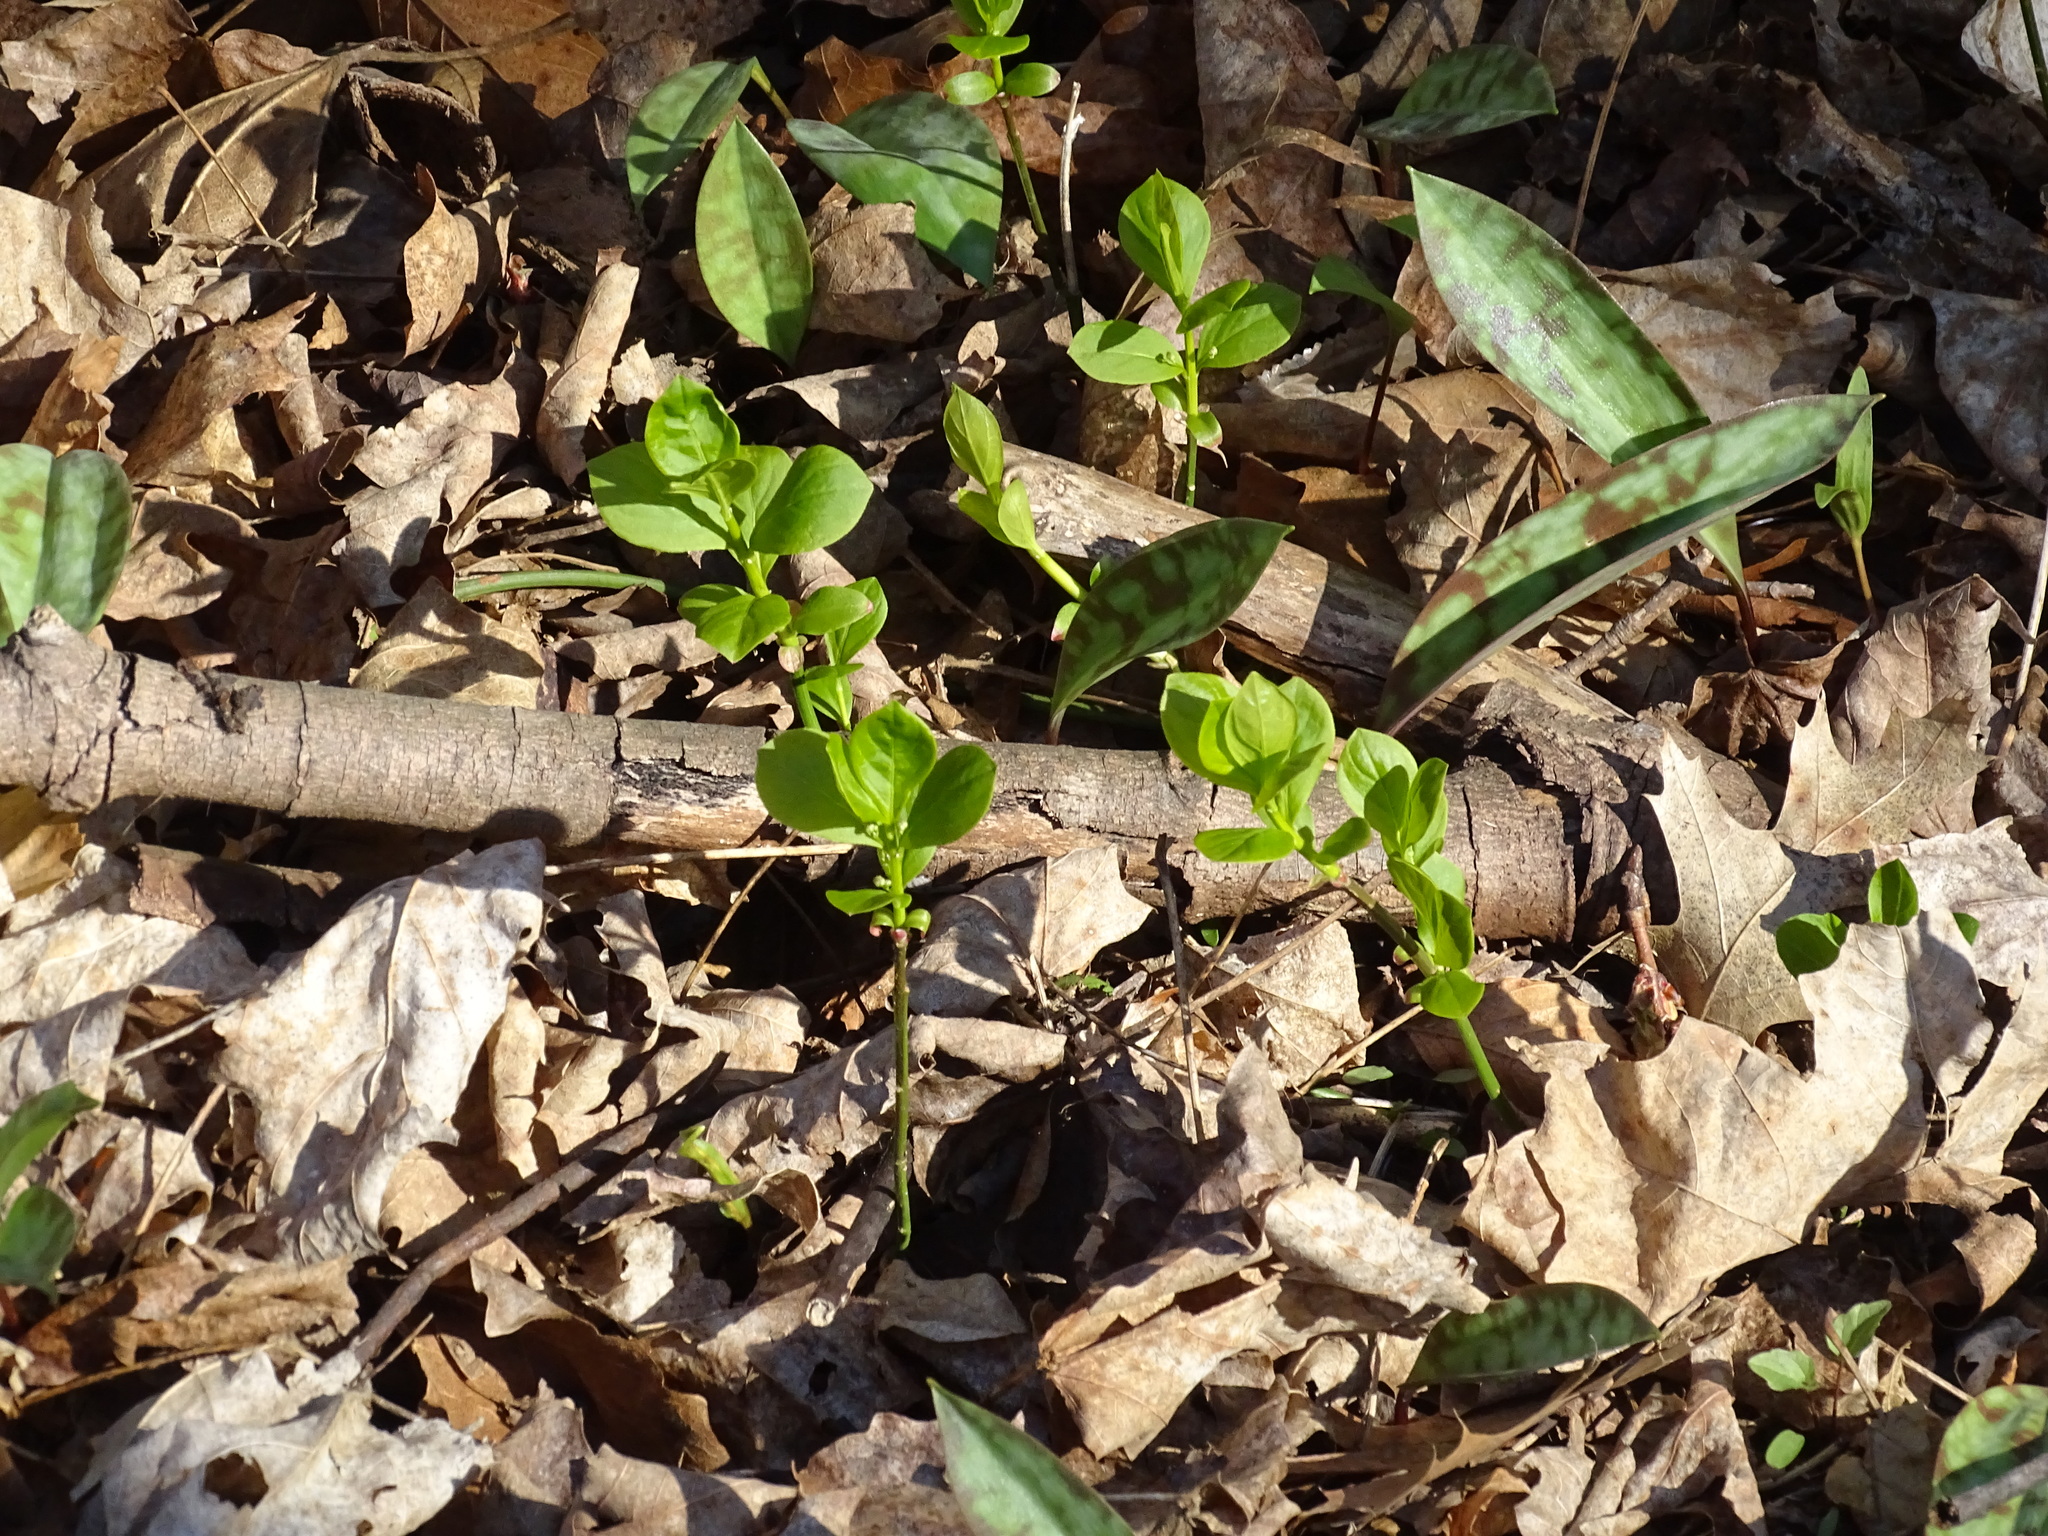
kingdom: Plantae
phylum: Tracheophyta
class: Magnoliopsida
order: Celastrales
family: Celastraceae
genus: Euonymus
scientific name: Euonymus obovatus
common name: Running strawberry-bush
